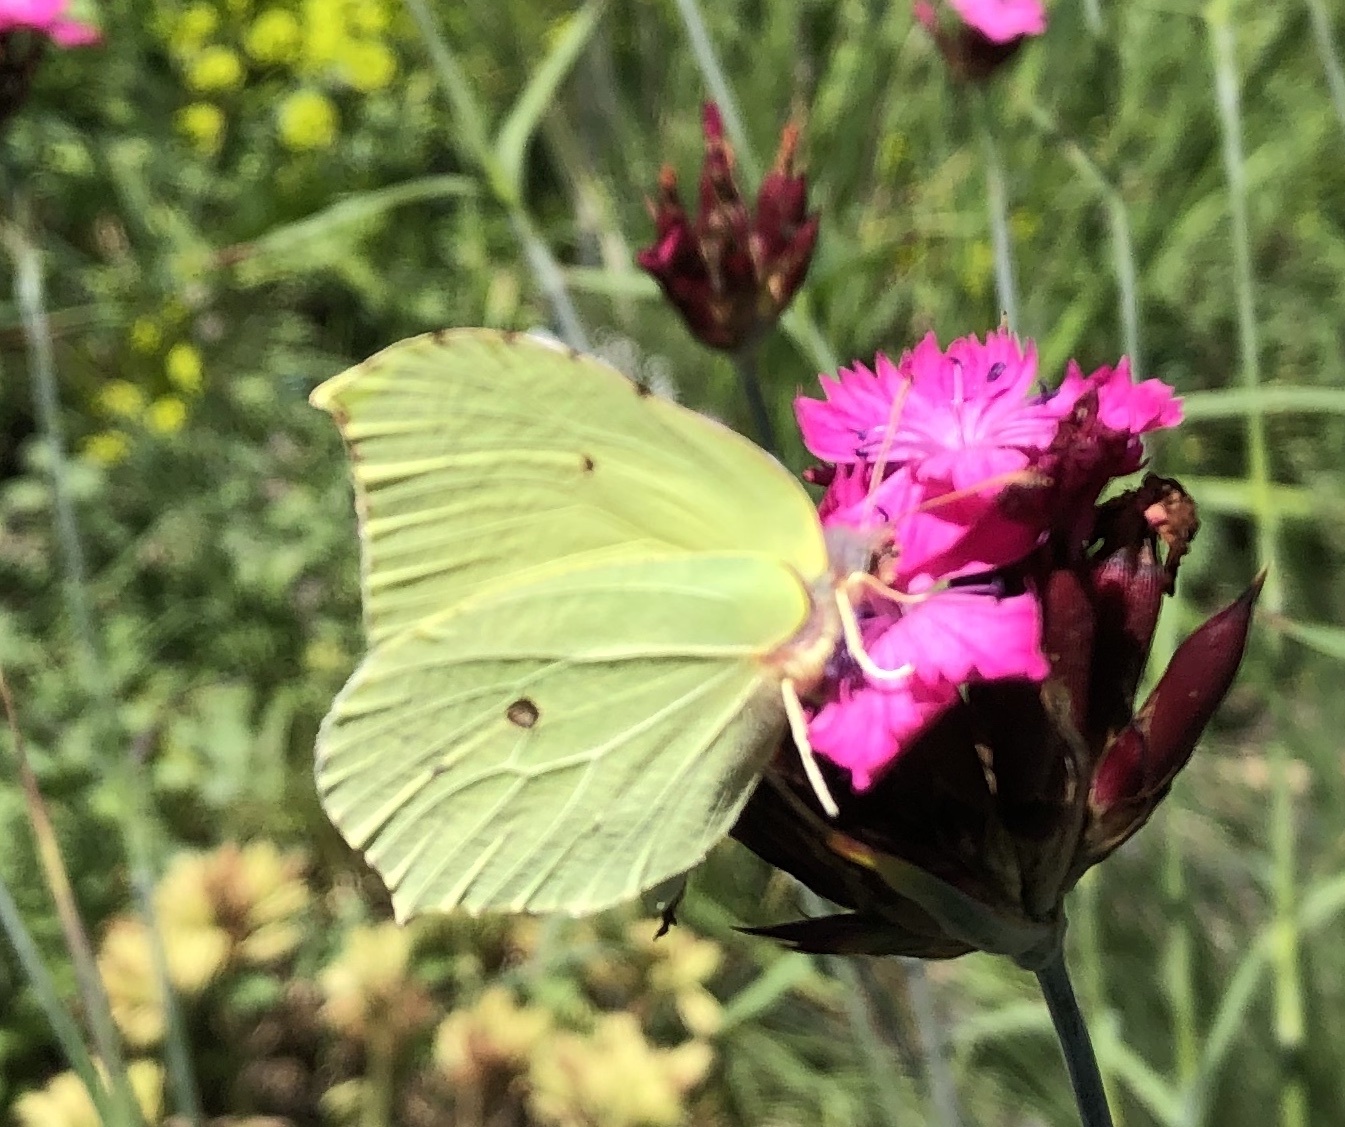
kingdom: Animalia
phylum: Arthropoda
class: Insecta
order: Lepidoptera
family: Pieridae
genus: Gonepteryx
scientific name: Gonepteryx rhamni
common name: Brimstone
